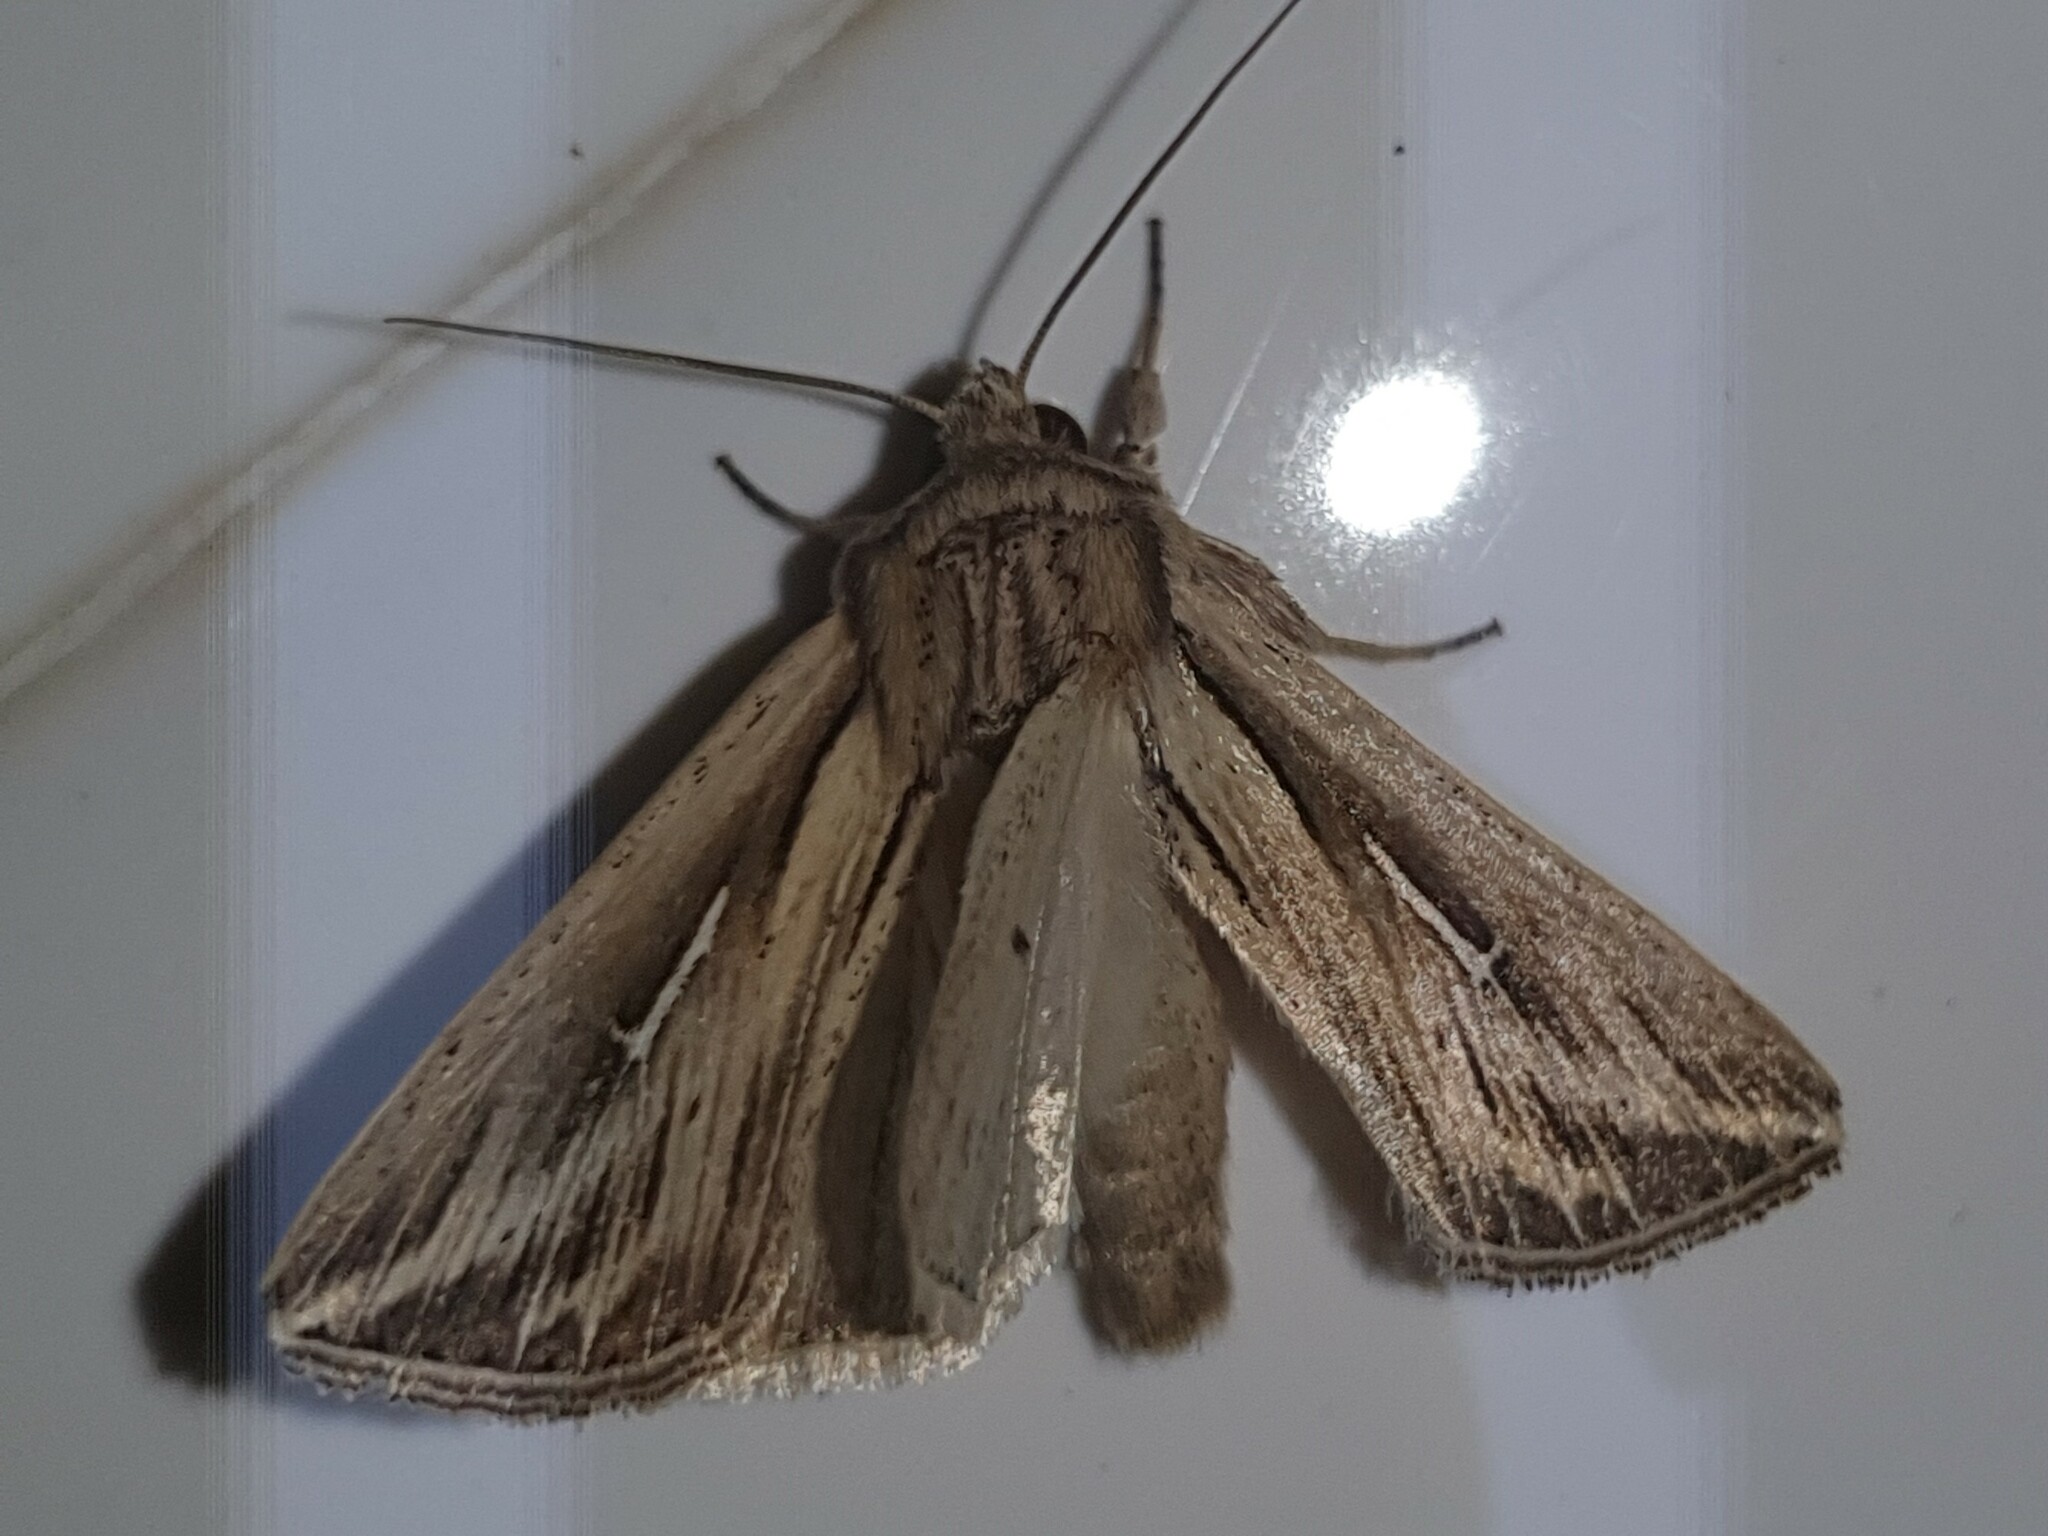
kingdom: Animalia
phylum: Arthropoda
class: Insecta
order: Lepidoptera
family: Noctuidae
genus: Mythimna
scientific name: Mythimna l-album
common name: L-album wainscot
